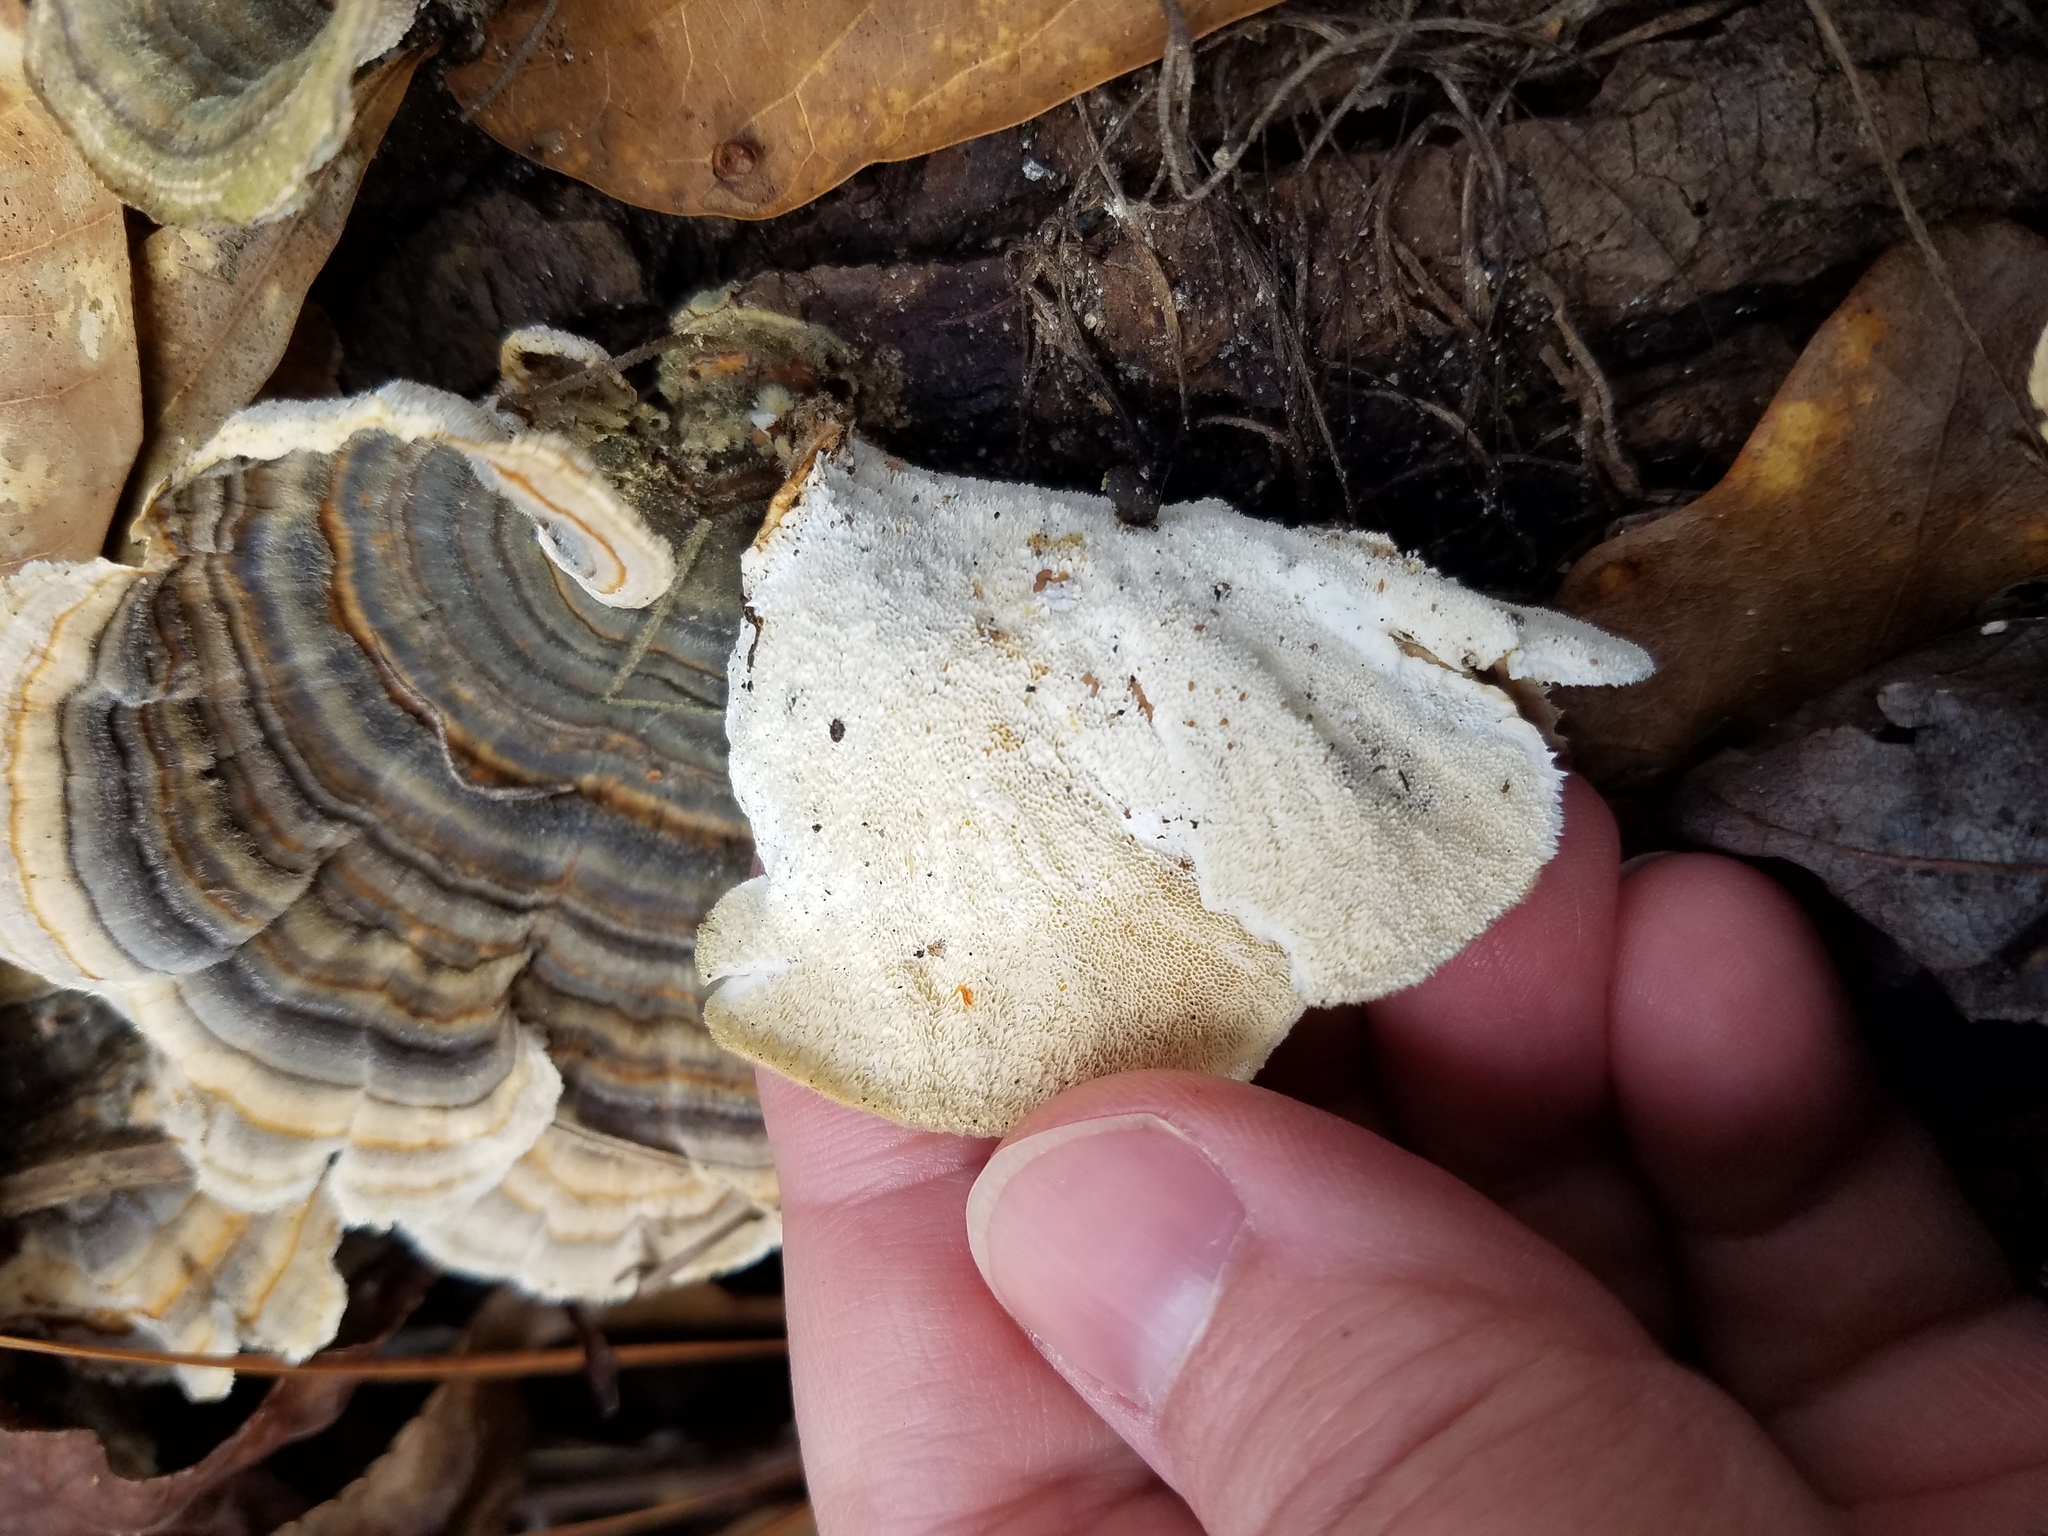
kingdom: Fungi
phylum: Basidiomycota
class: Agaricomycetes
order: Polyporales
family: Polyporaceae
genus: Trametes
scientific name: Trametes versicolor
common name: Turkeytail
